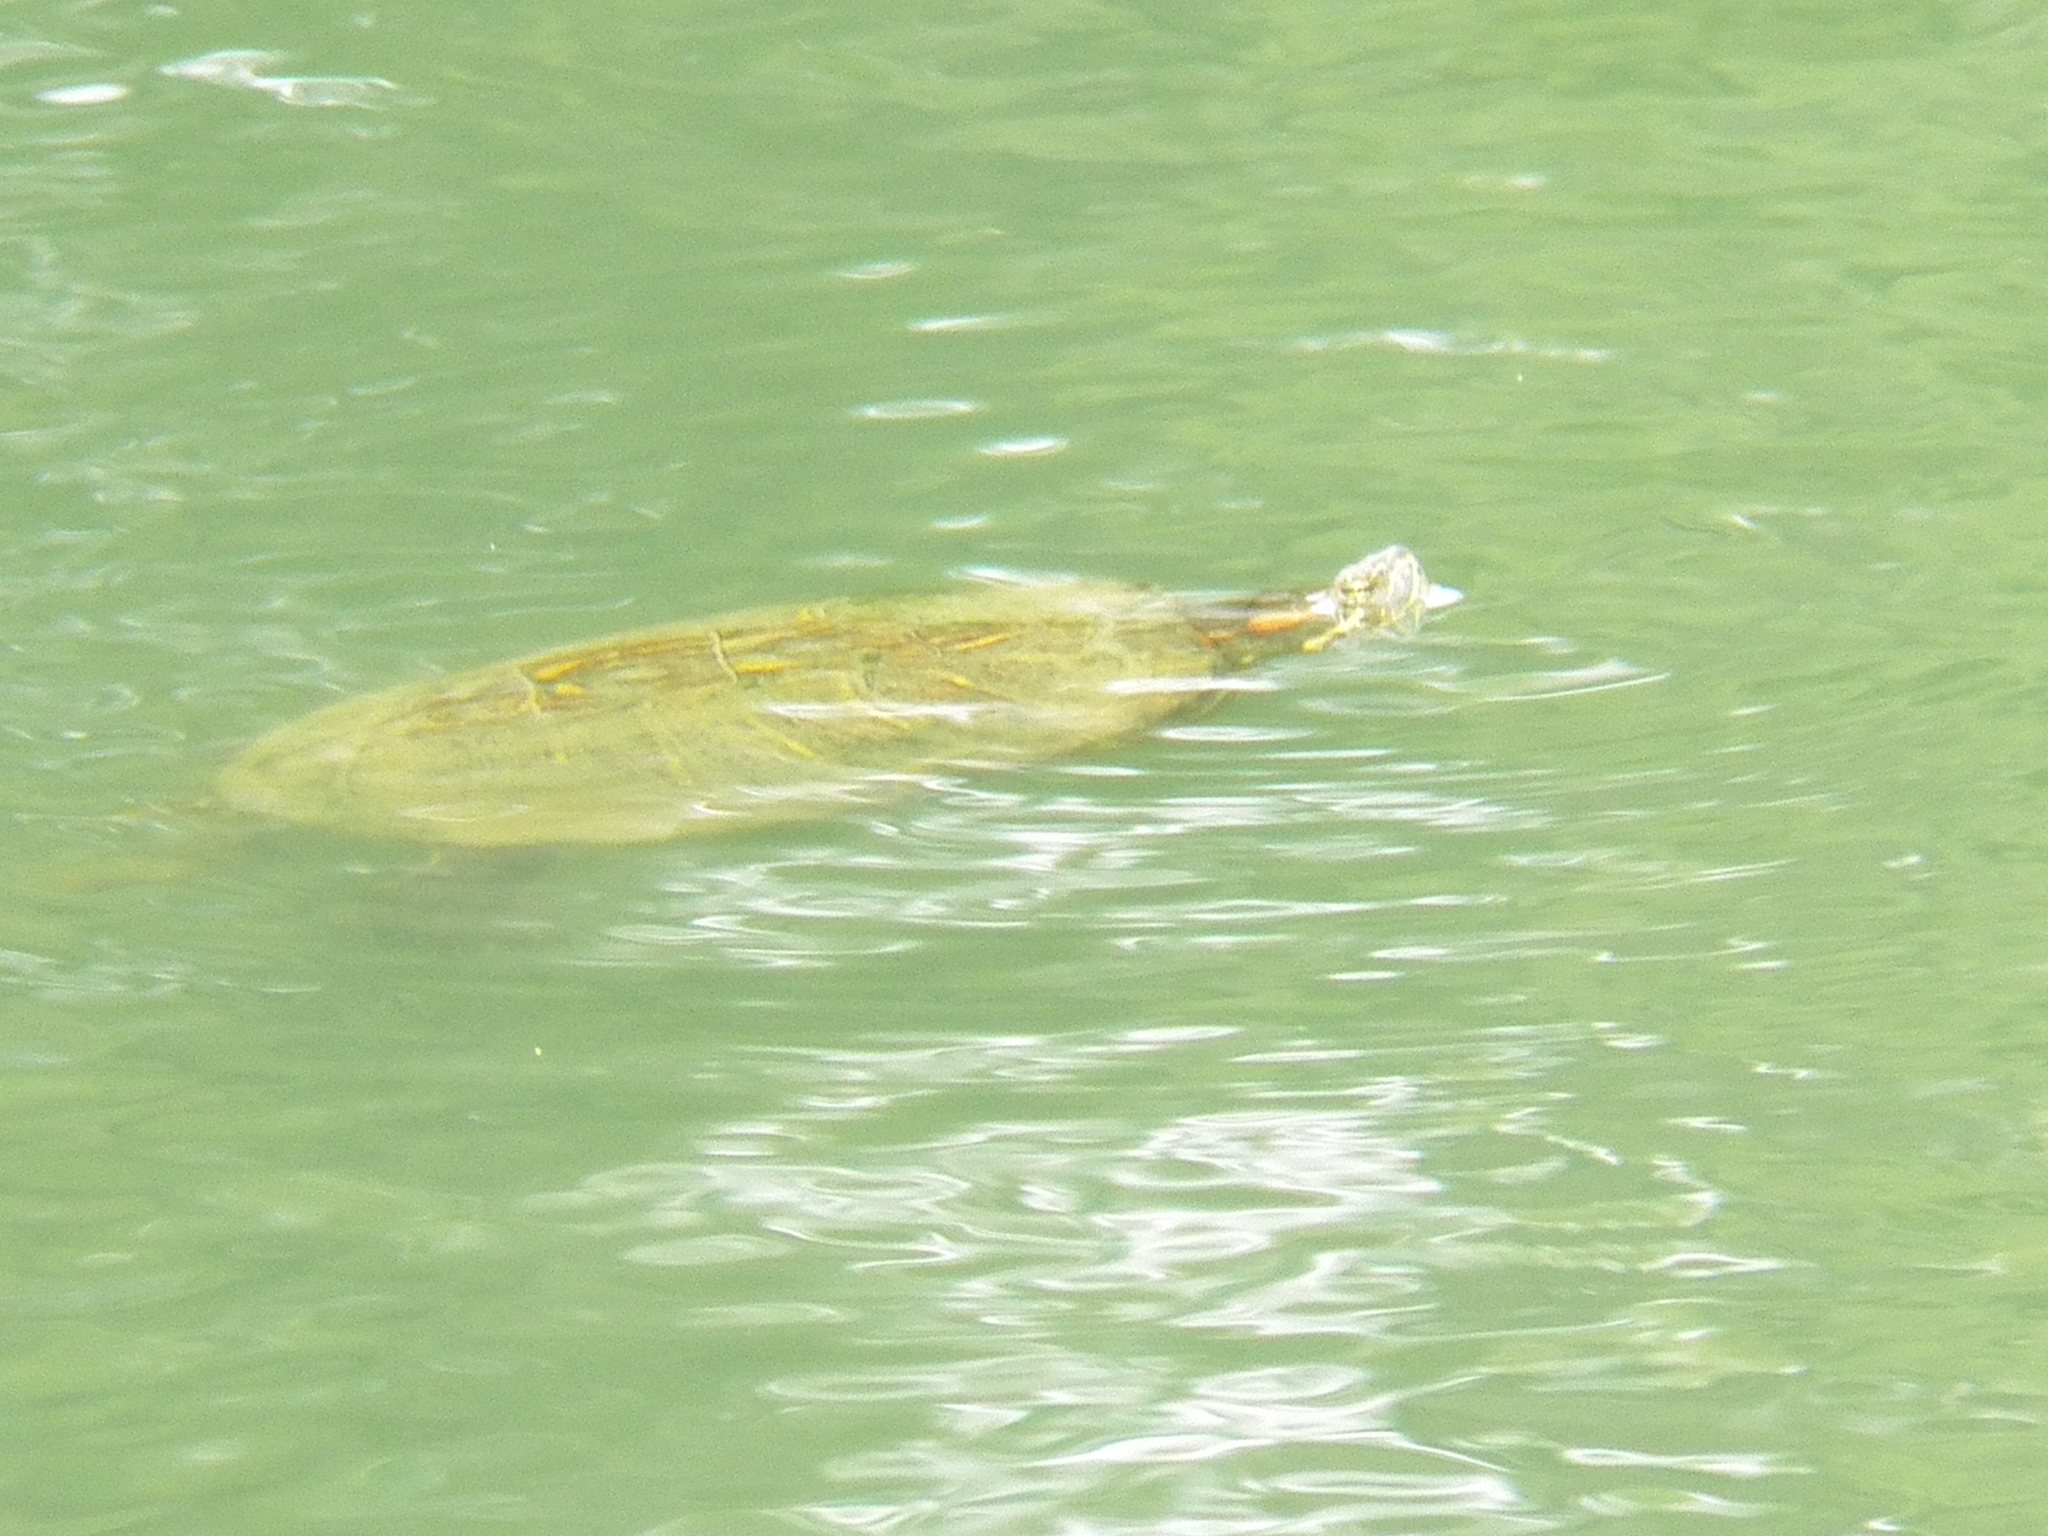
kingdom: Animalia
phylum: Chordata
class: Testudines
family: Emydidae
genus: Trachemys
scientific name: Trachemys scripta
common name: Slider
